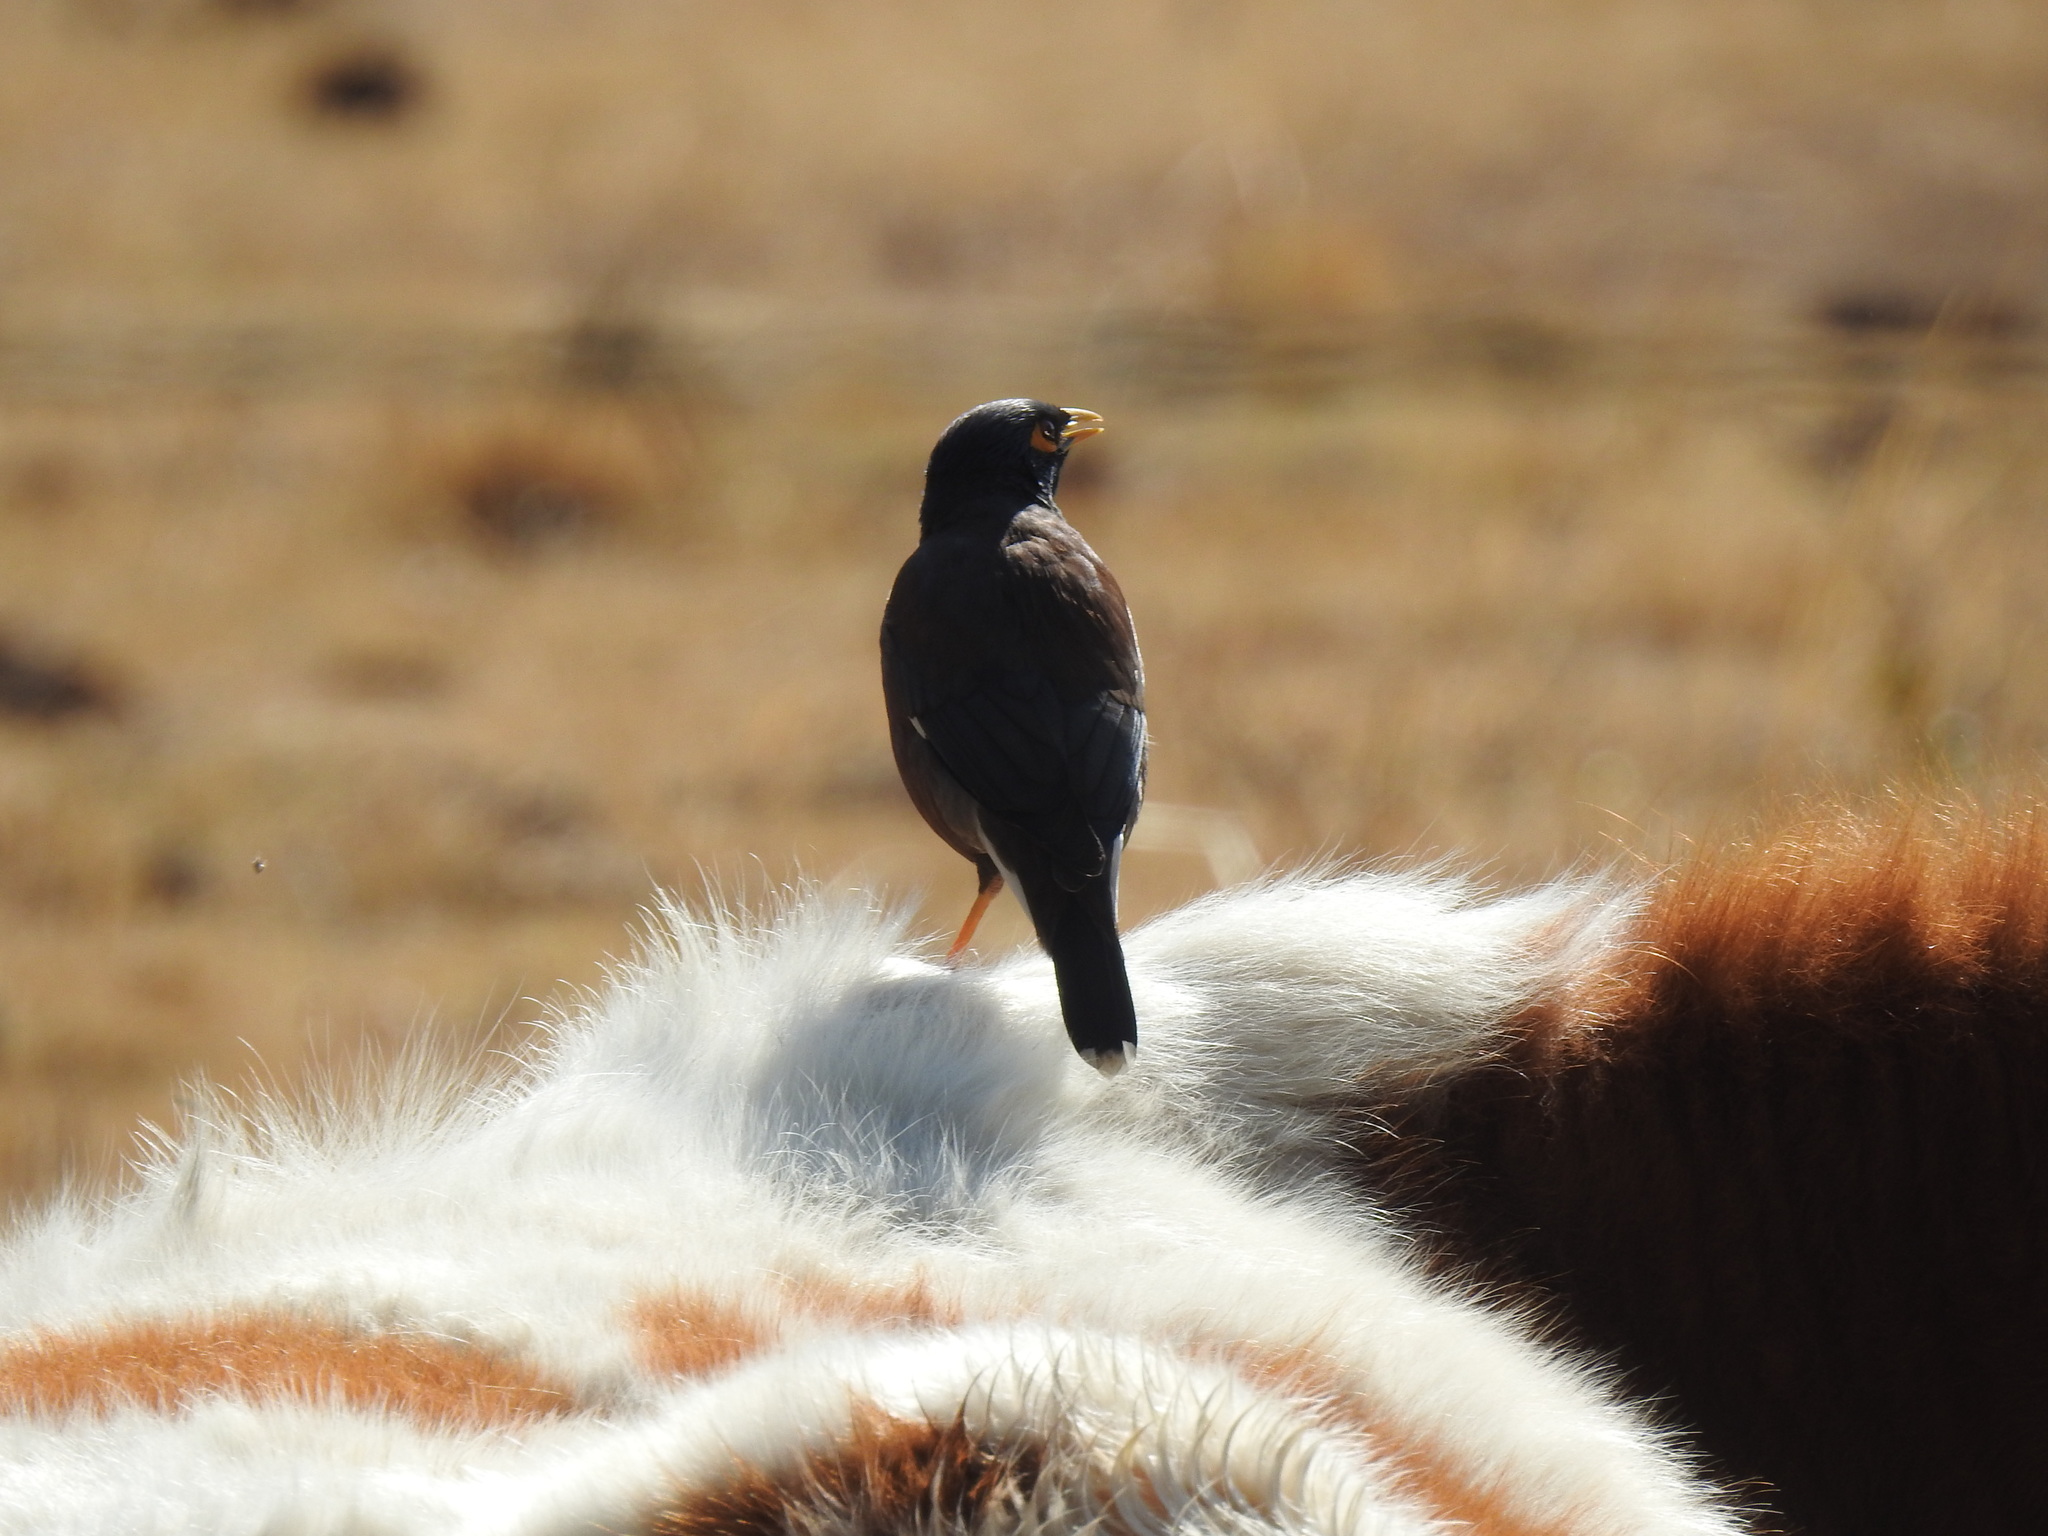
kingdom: Animalia
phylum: Chordata
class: Aves
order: Passeriformes
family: Sturnidae
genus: Acridotheres
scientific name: Acridotheres tristis
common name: Common myna
